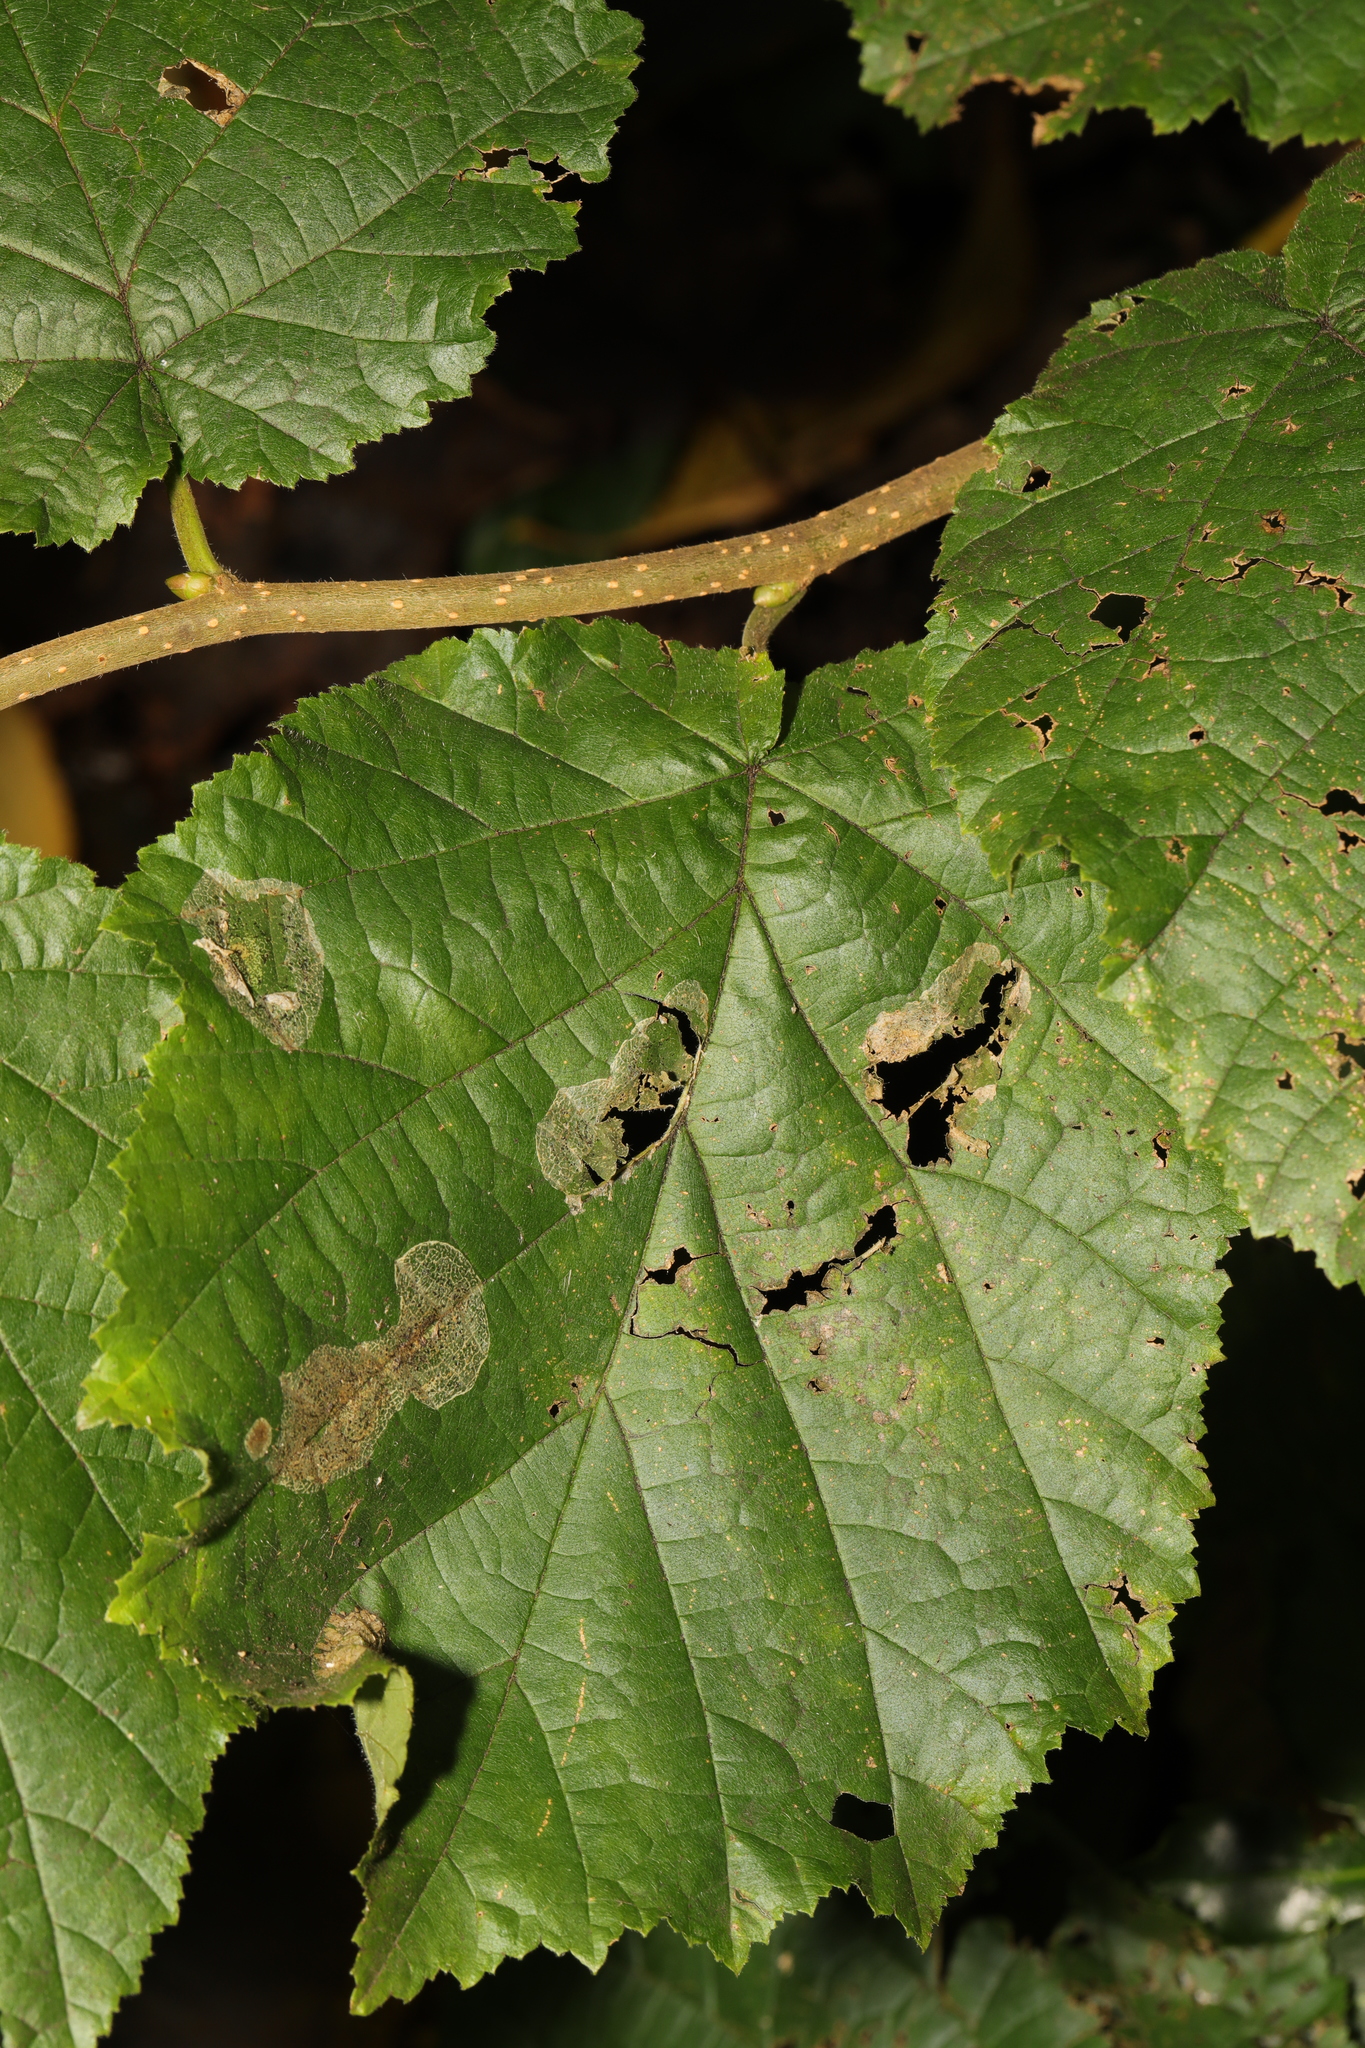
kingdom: Animalia
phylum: Arthropoda
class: Insecta
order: Lepidoptera
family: Gracillariidae
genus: Phyllonorycter
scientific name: Phyllonorycter coryli
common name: Nut-leaf blister moth
